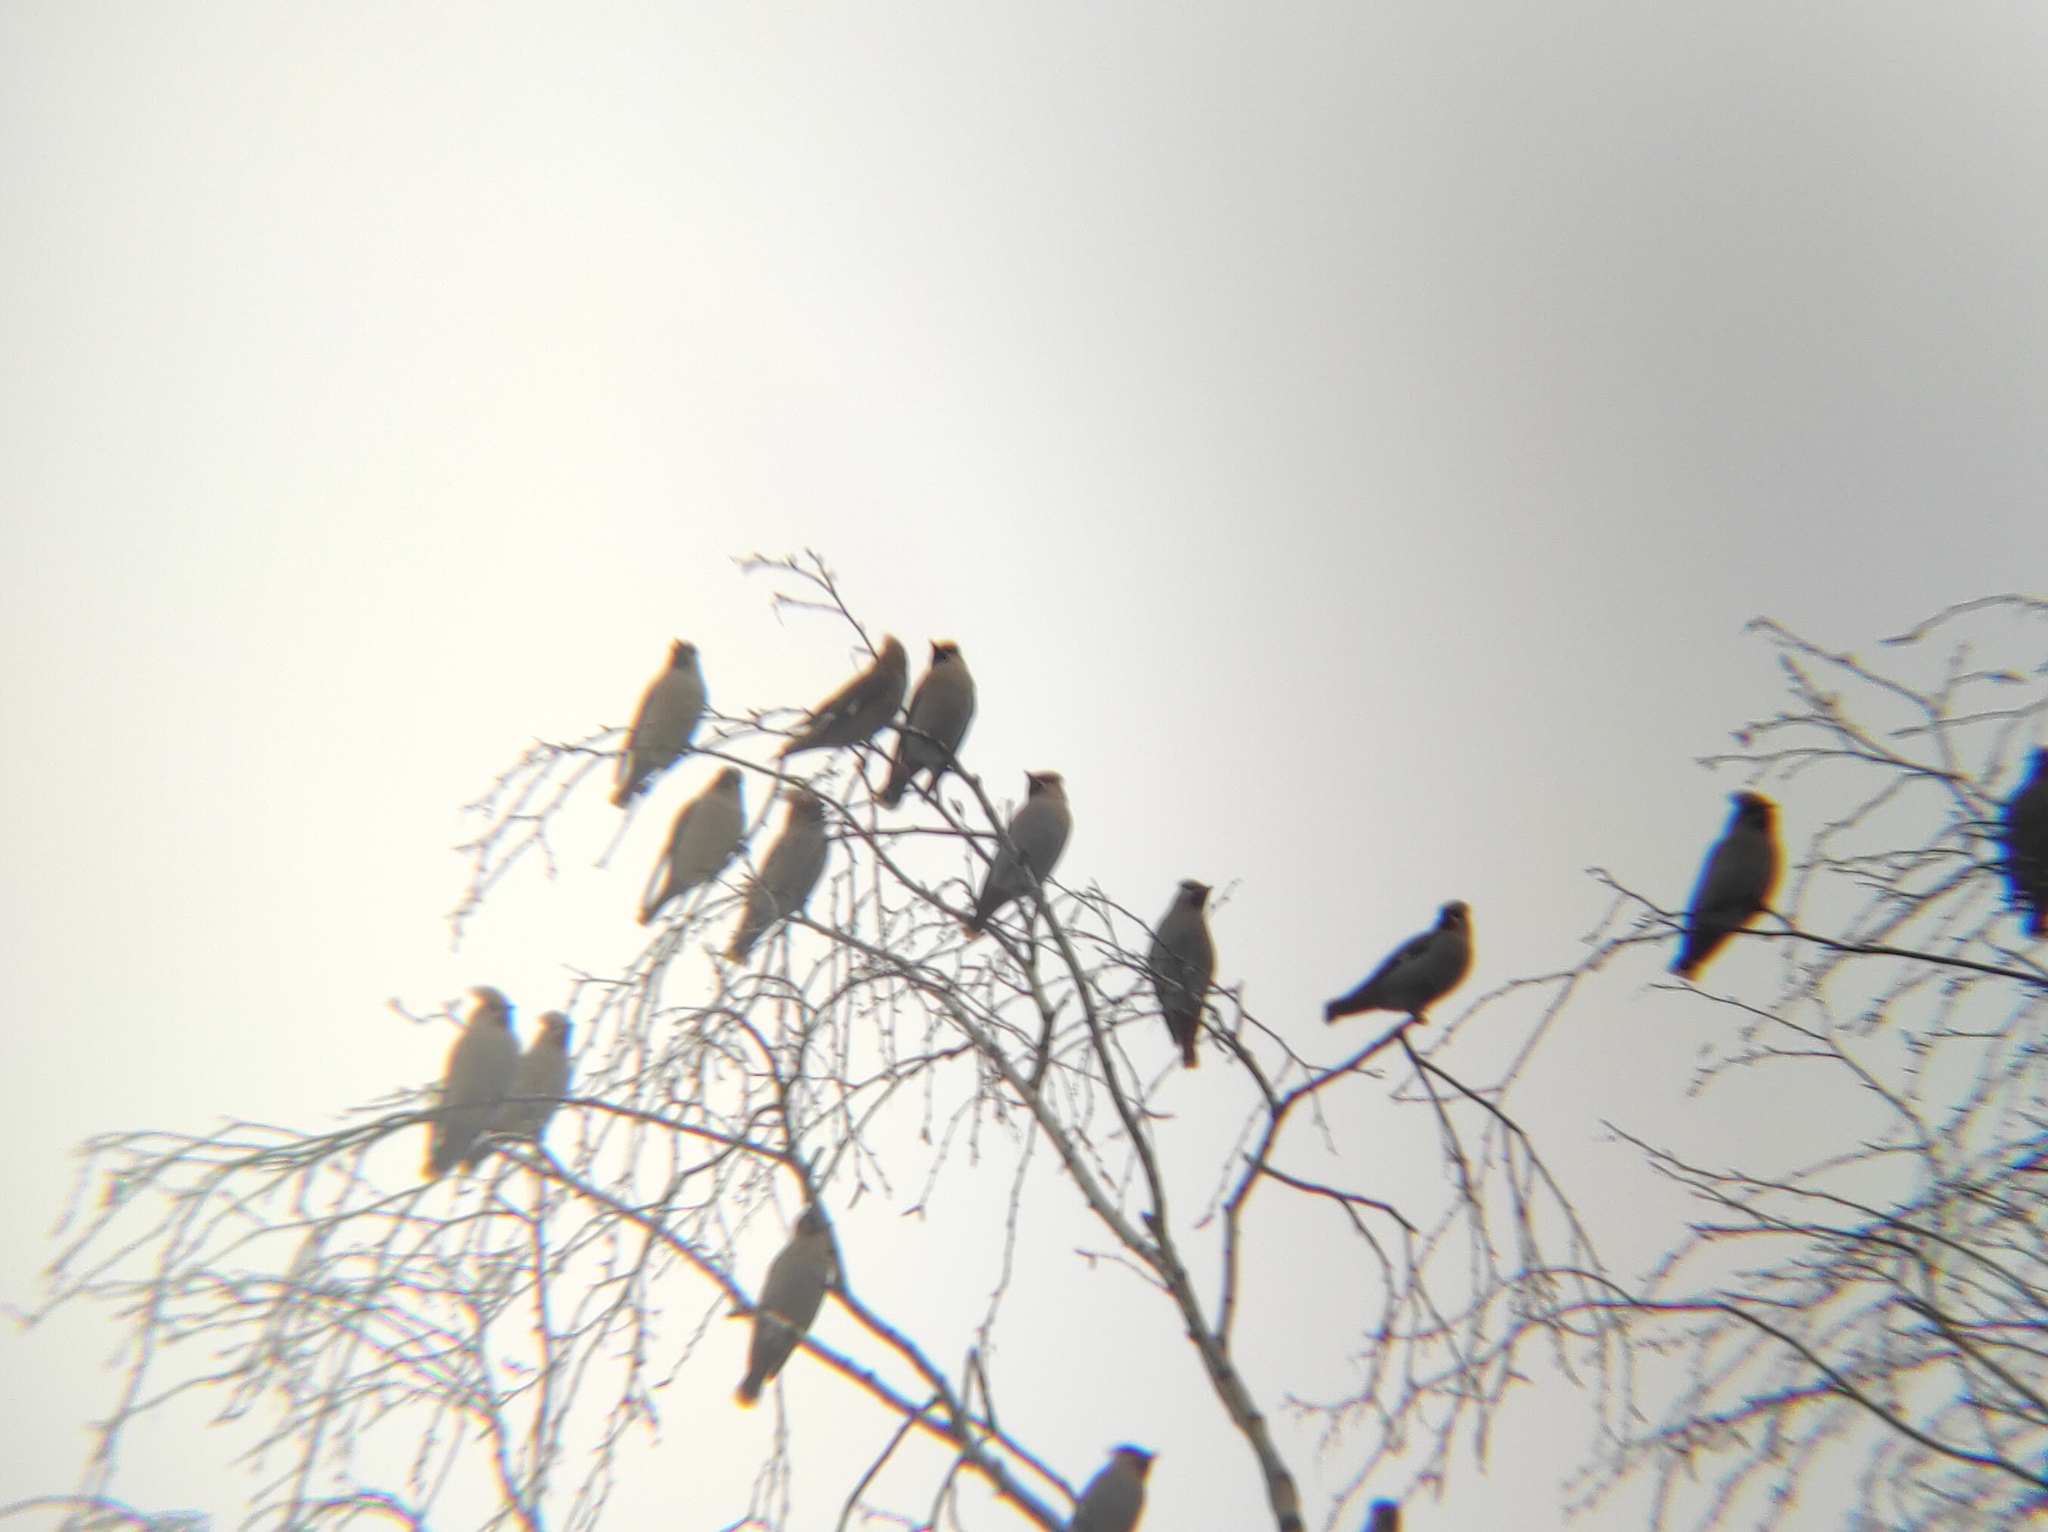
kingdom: Animalia
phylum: Chordata
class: Aves
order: Passeriformes
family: Bombycillidae
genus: Bombycilla
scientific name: Bombycilla garrulus
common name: Bohemian waxwing
